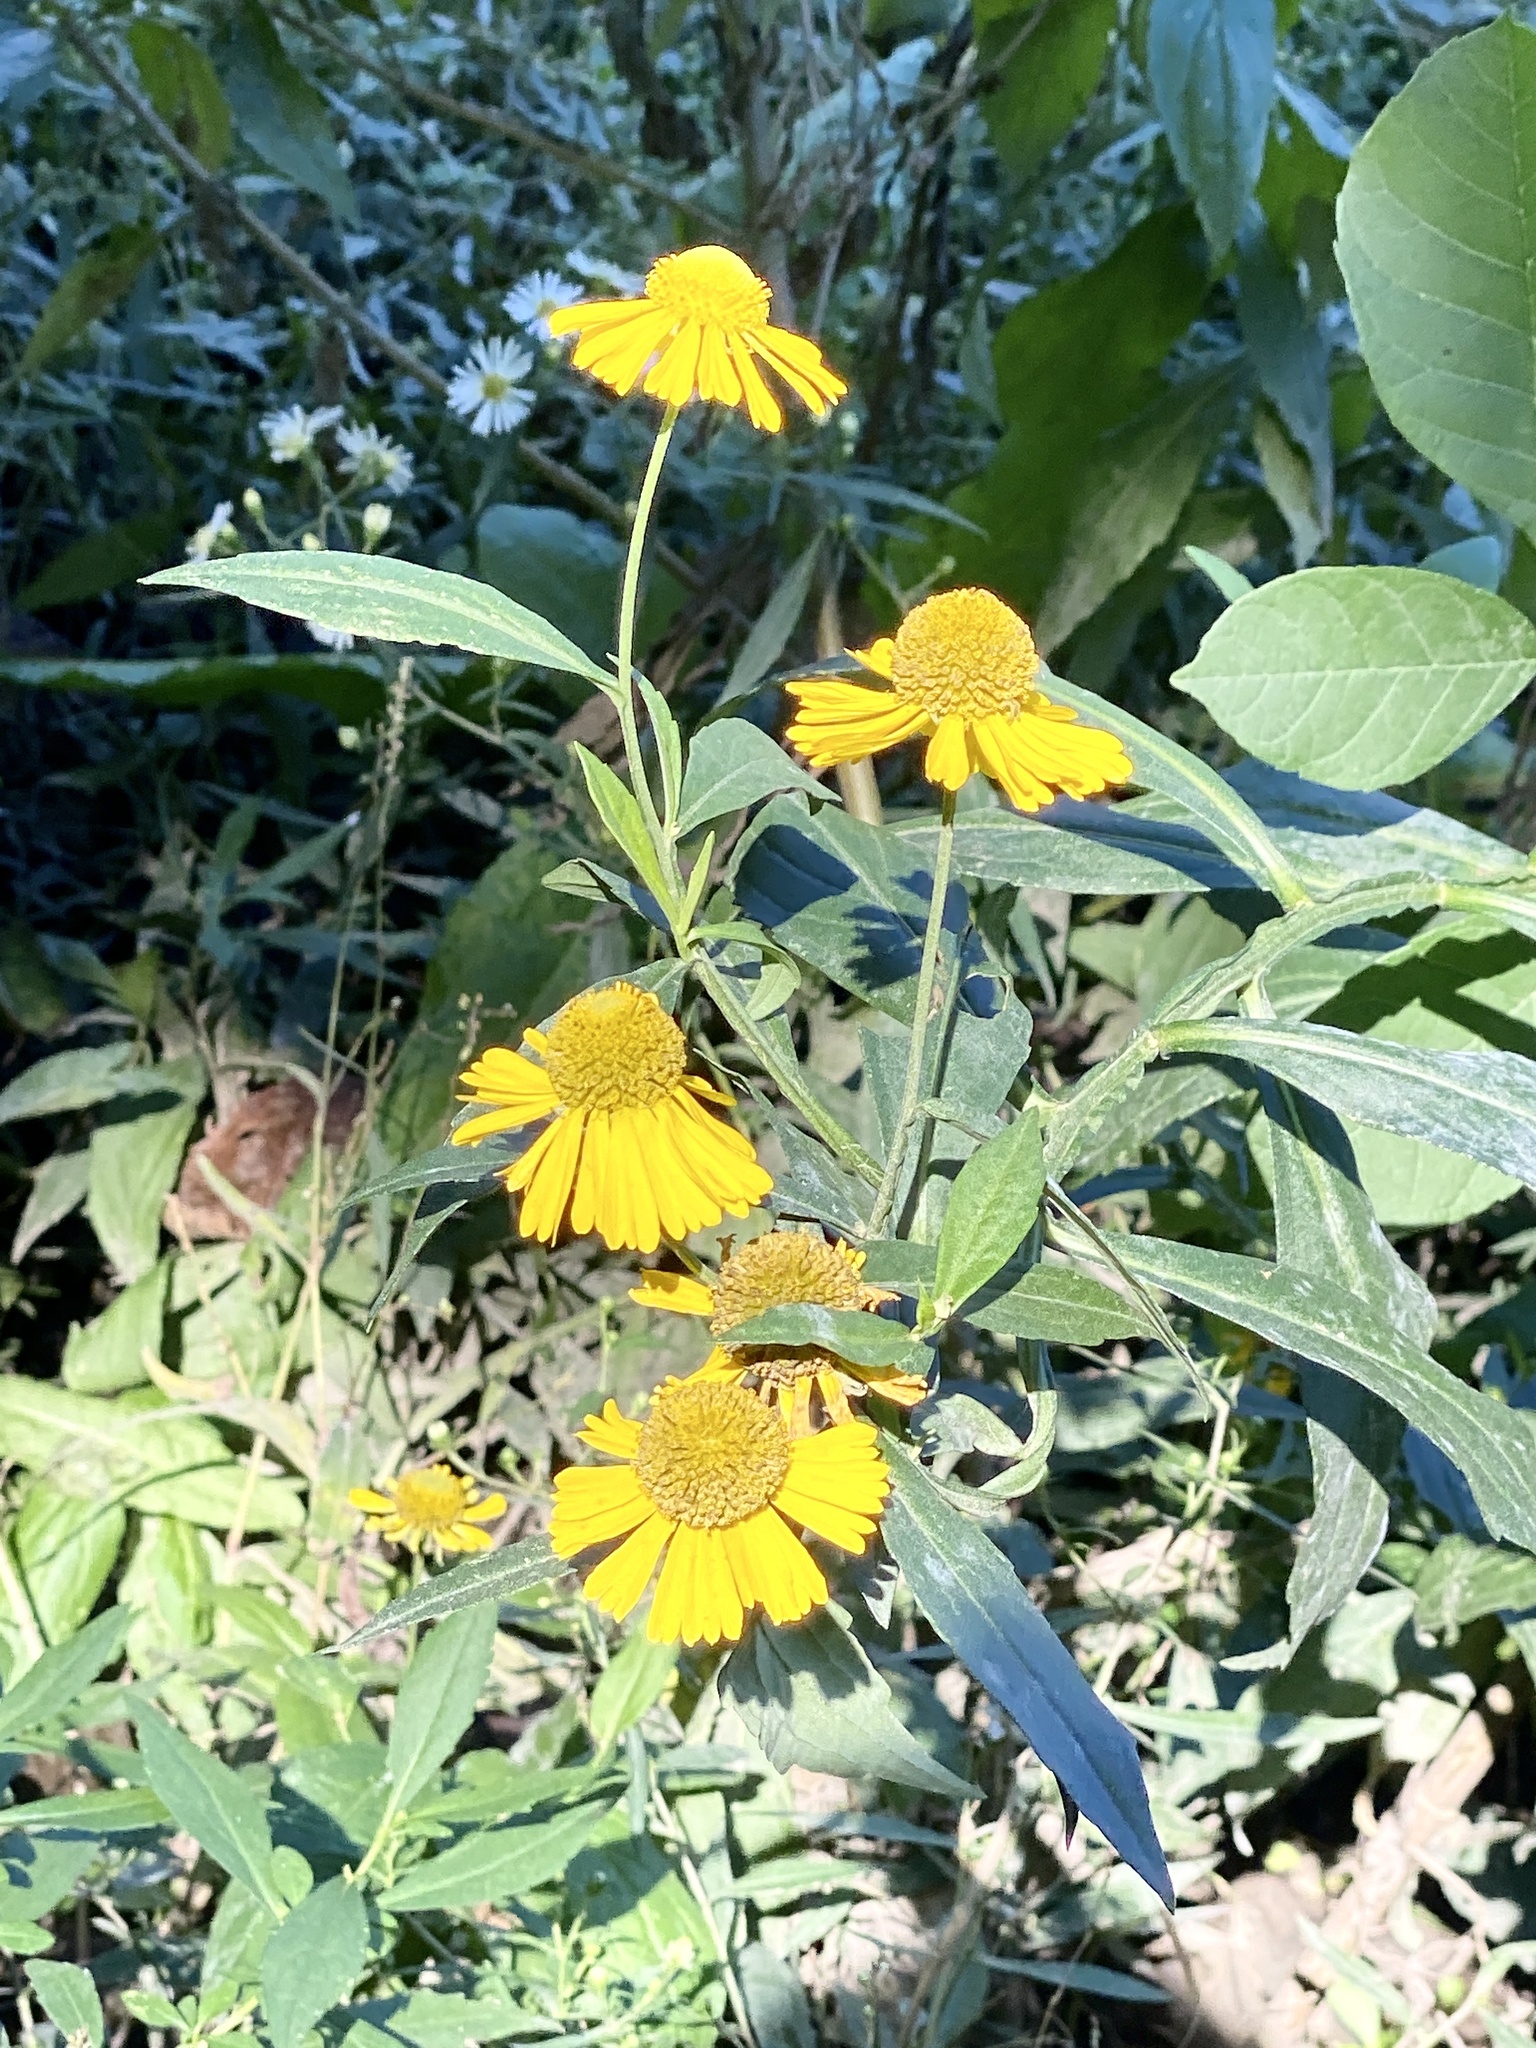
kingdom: Plantae
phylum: Tracheophyta
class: Magnoliopsida
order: Asterales
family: Asteraceae
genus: Helenium
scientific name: Helenium autumnale
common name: Sneezeweed
